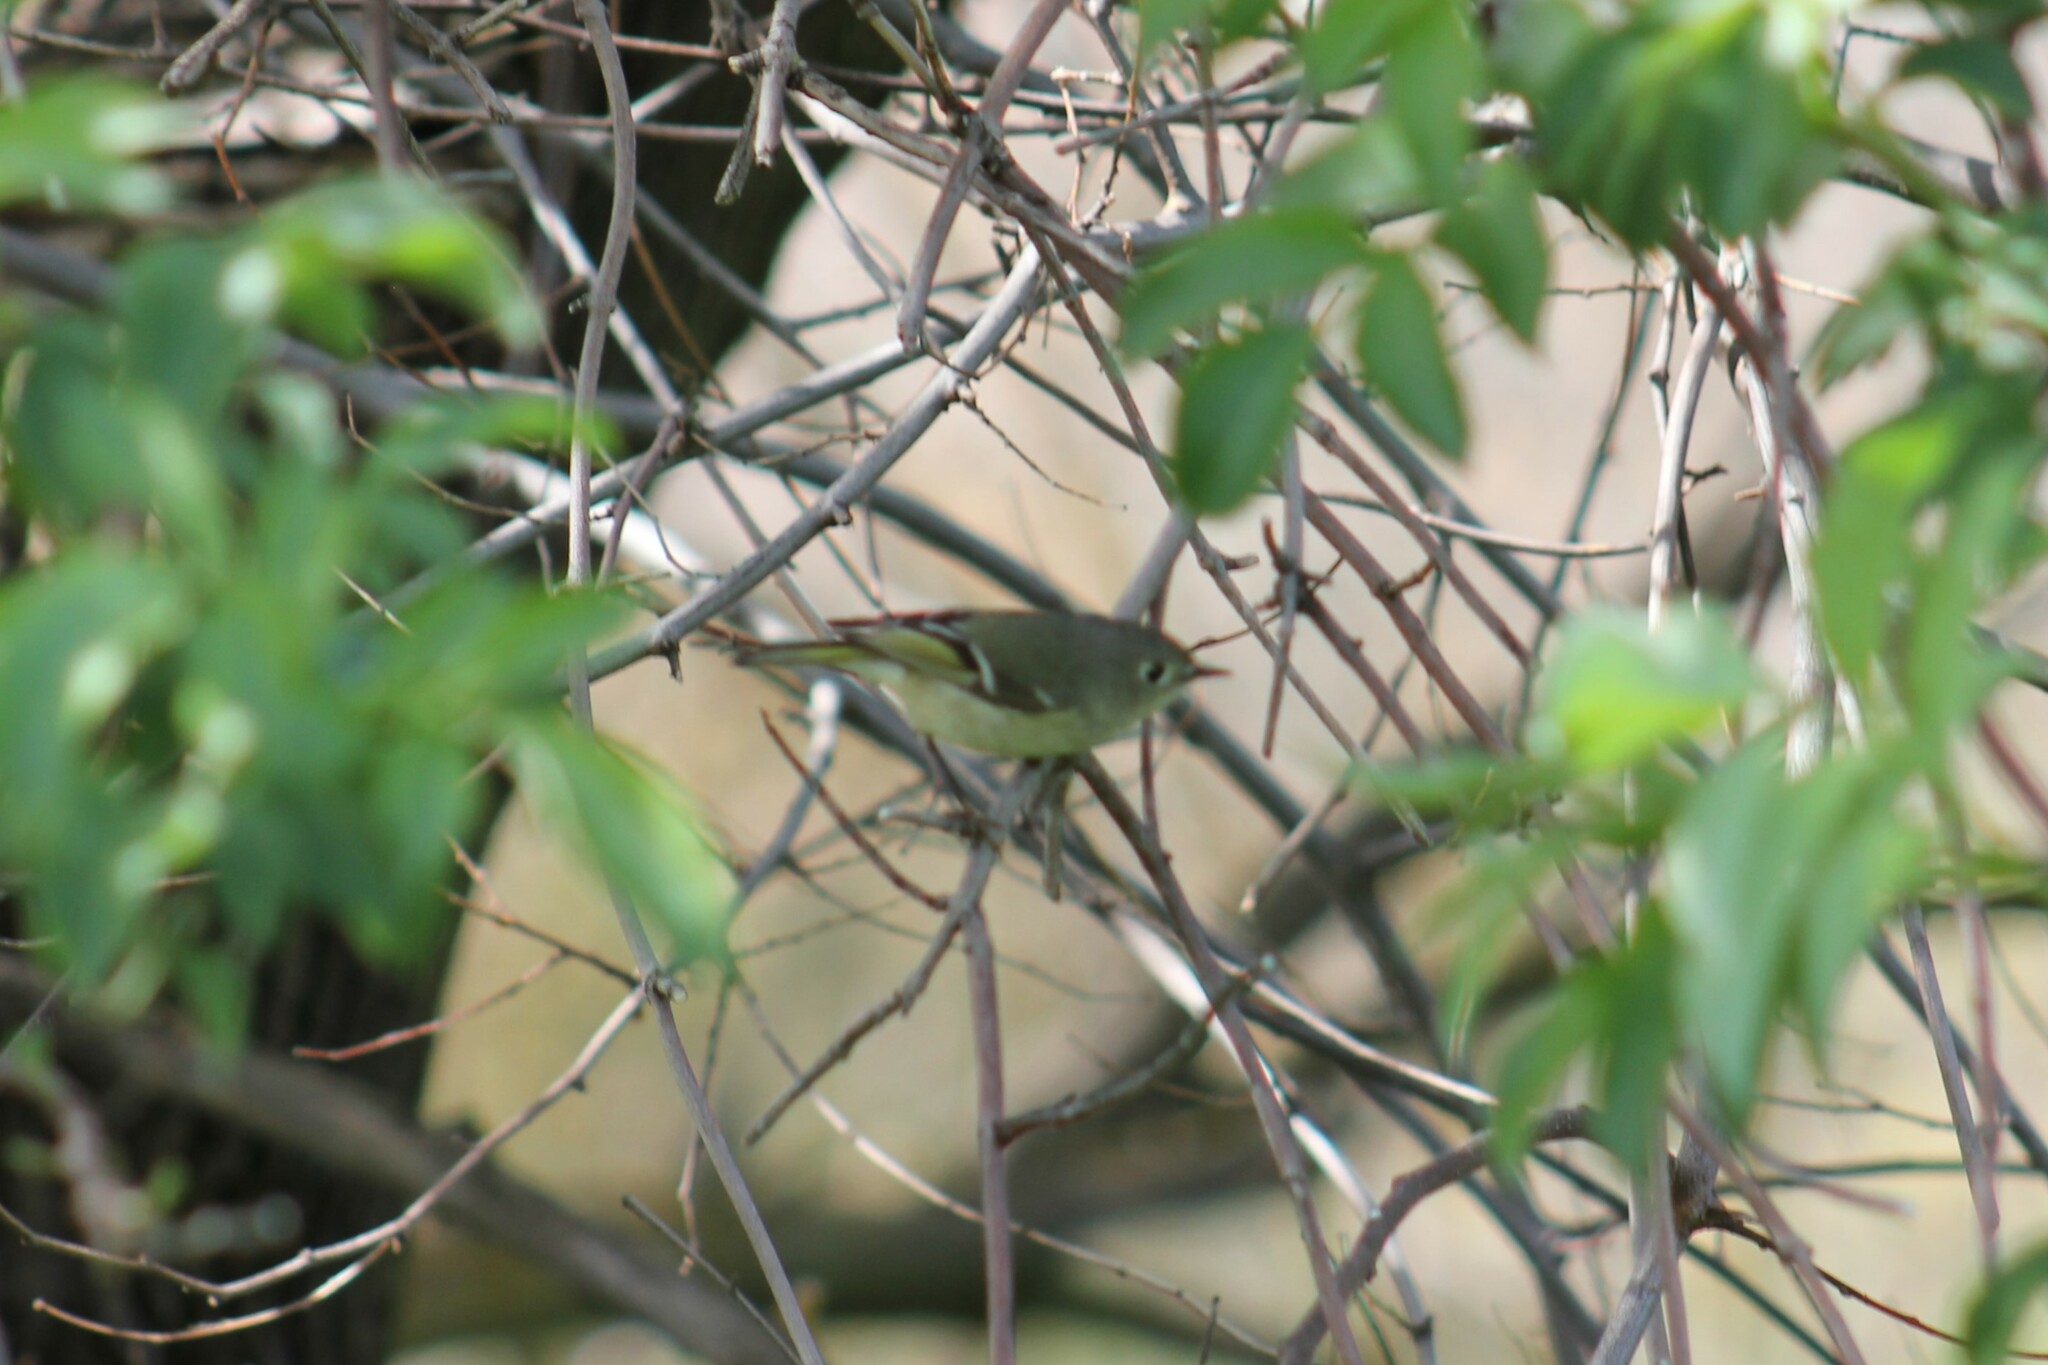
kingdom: Animalia
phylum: Chordata
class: Aves
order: Passeriformes
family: Regulidae
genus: Regulus
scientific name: Regulus calendula
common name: Ruby-crowned kinglet
